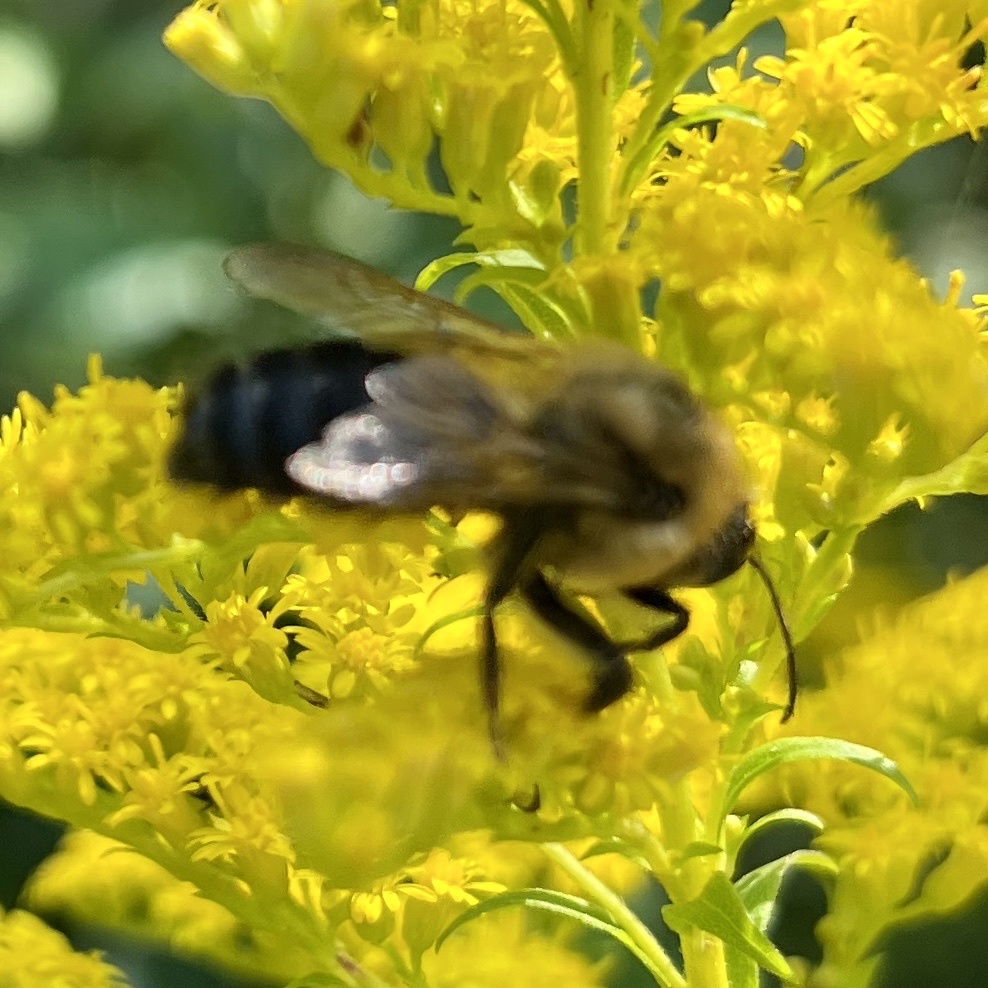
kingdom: Animalia
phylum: Arthropoda
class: Insecta
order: Hymenoptera
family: Apidae
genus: Bombus
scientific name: Bombus griseocollis
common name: Brown-belted bumble bee
